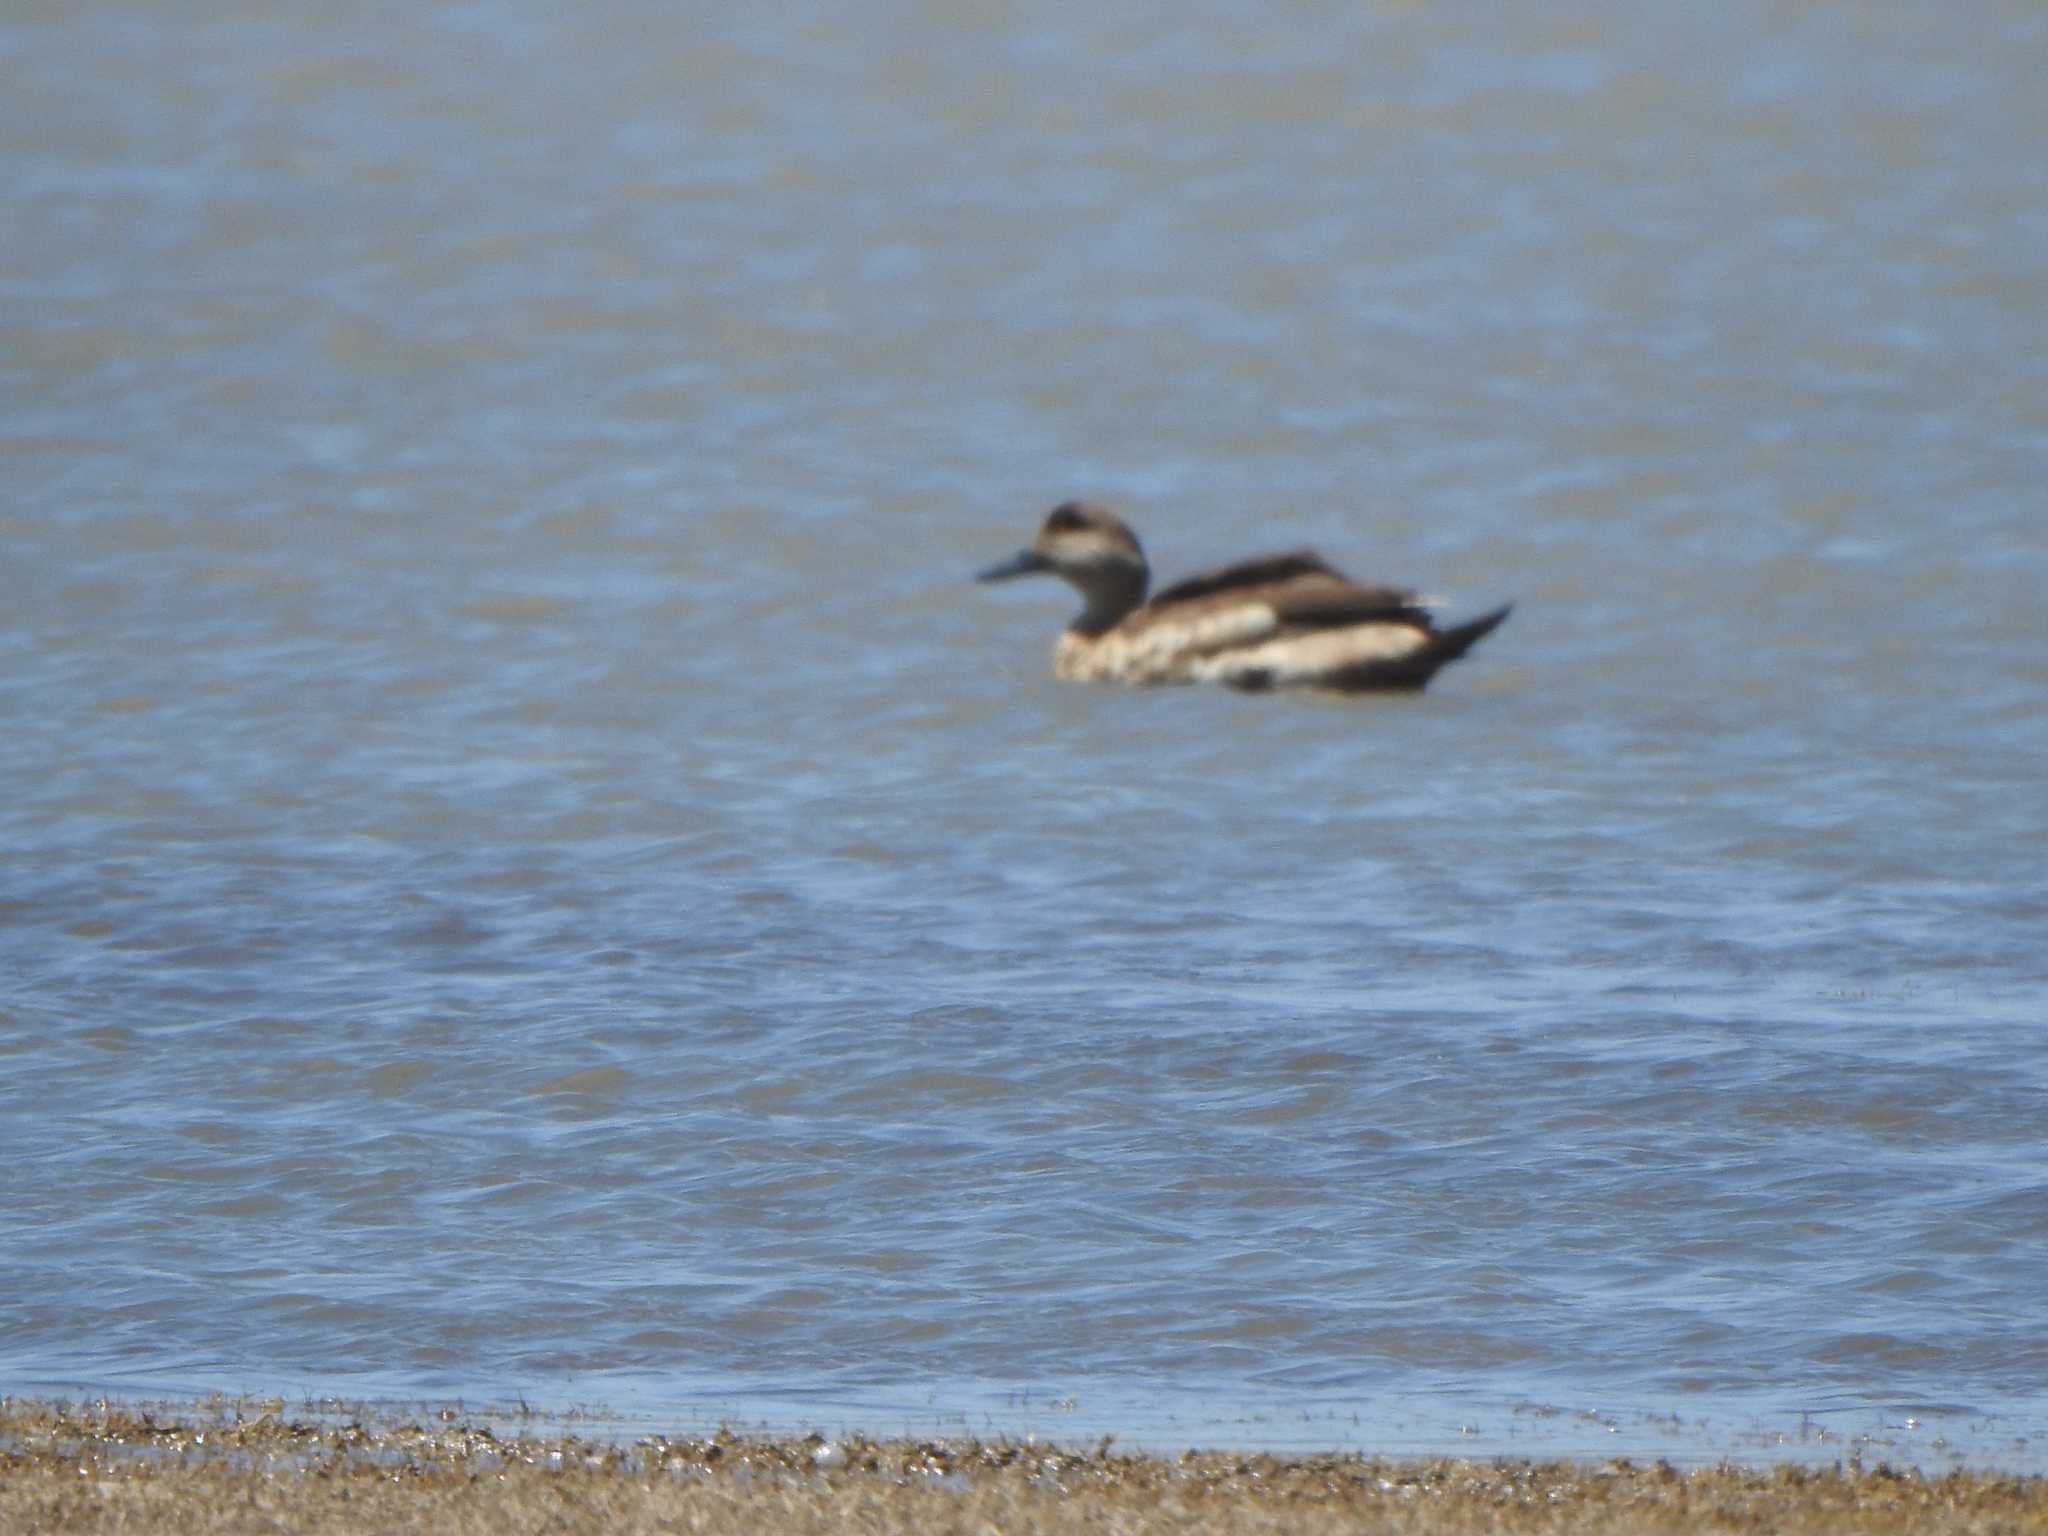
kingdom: Animalia
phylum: Chordata
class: Aves
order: Anseriformes
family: Anatidae
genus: Lophonetta
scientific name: Lophonetta specularioides
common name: Crested duck
